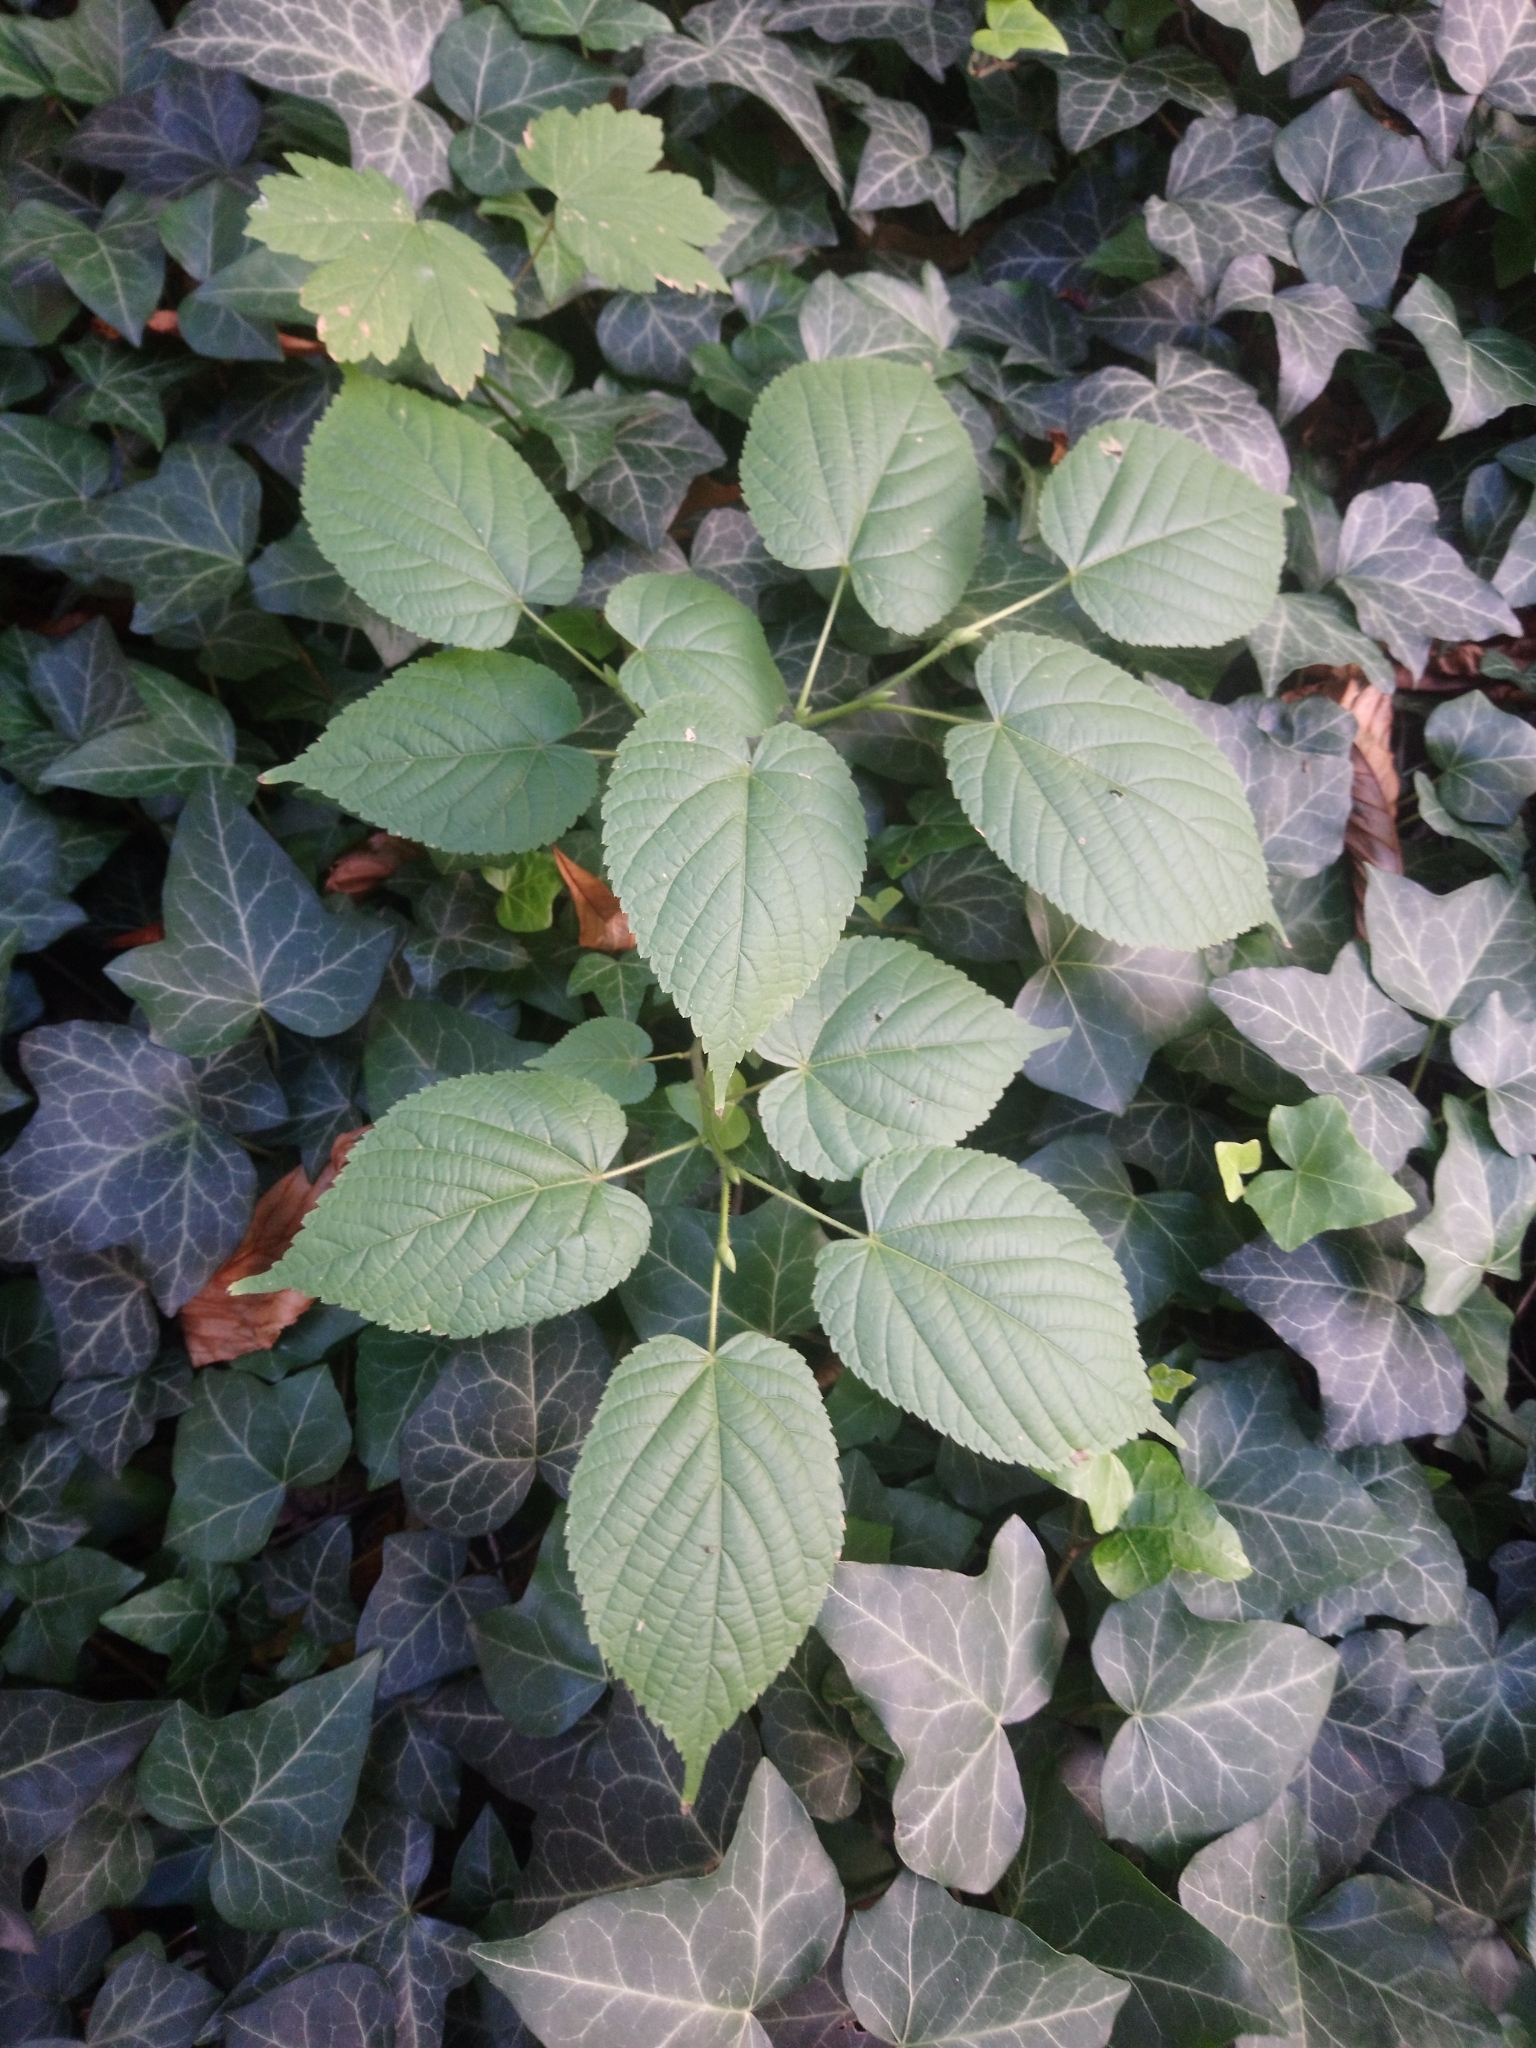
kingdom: Plantae
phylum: Tracheophyta
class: Magnoliopsida
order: Malvales
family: Malvaceae
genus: Tilia
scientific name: Tilia platyphyllos
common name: Large-leaved lime
